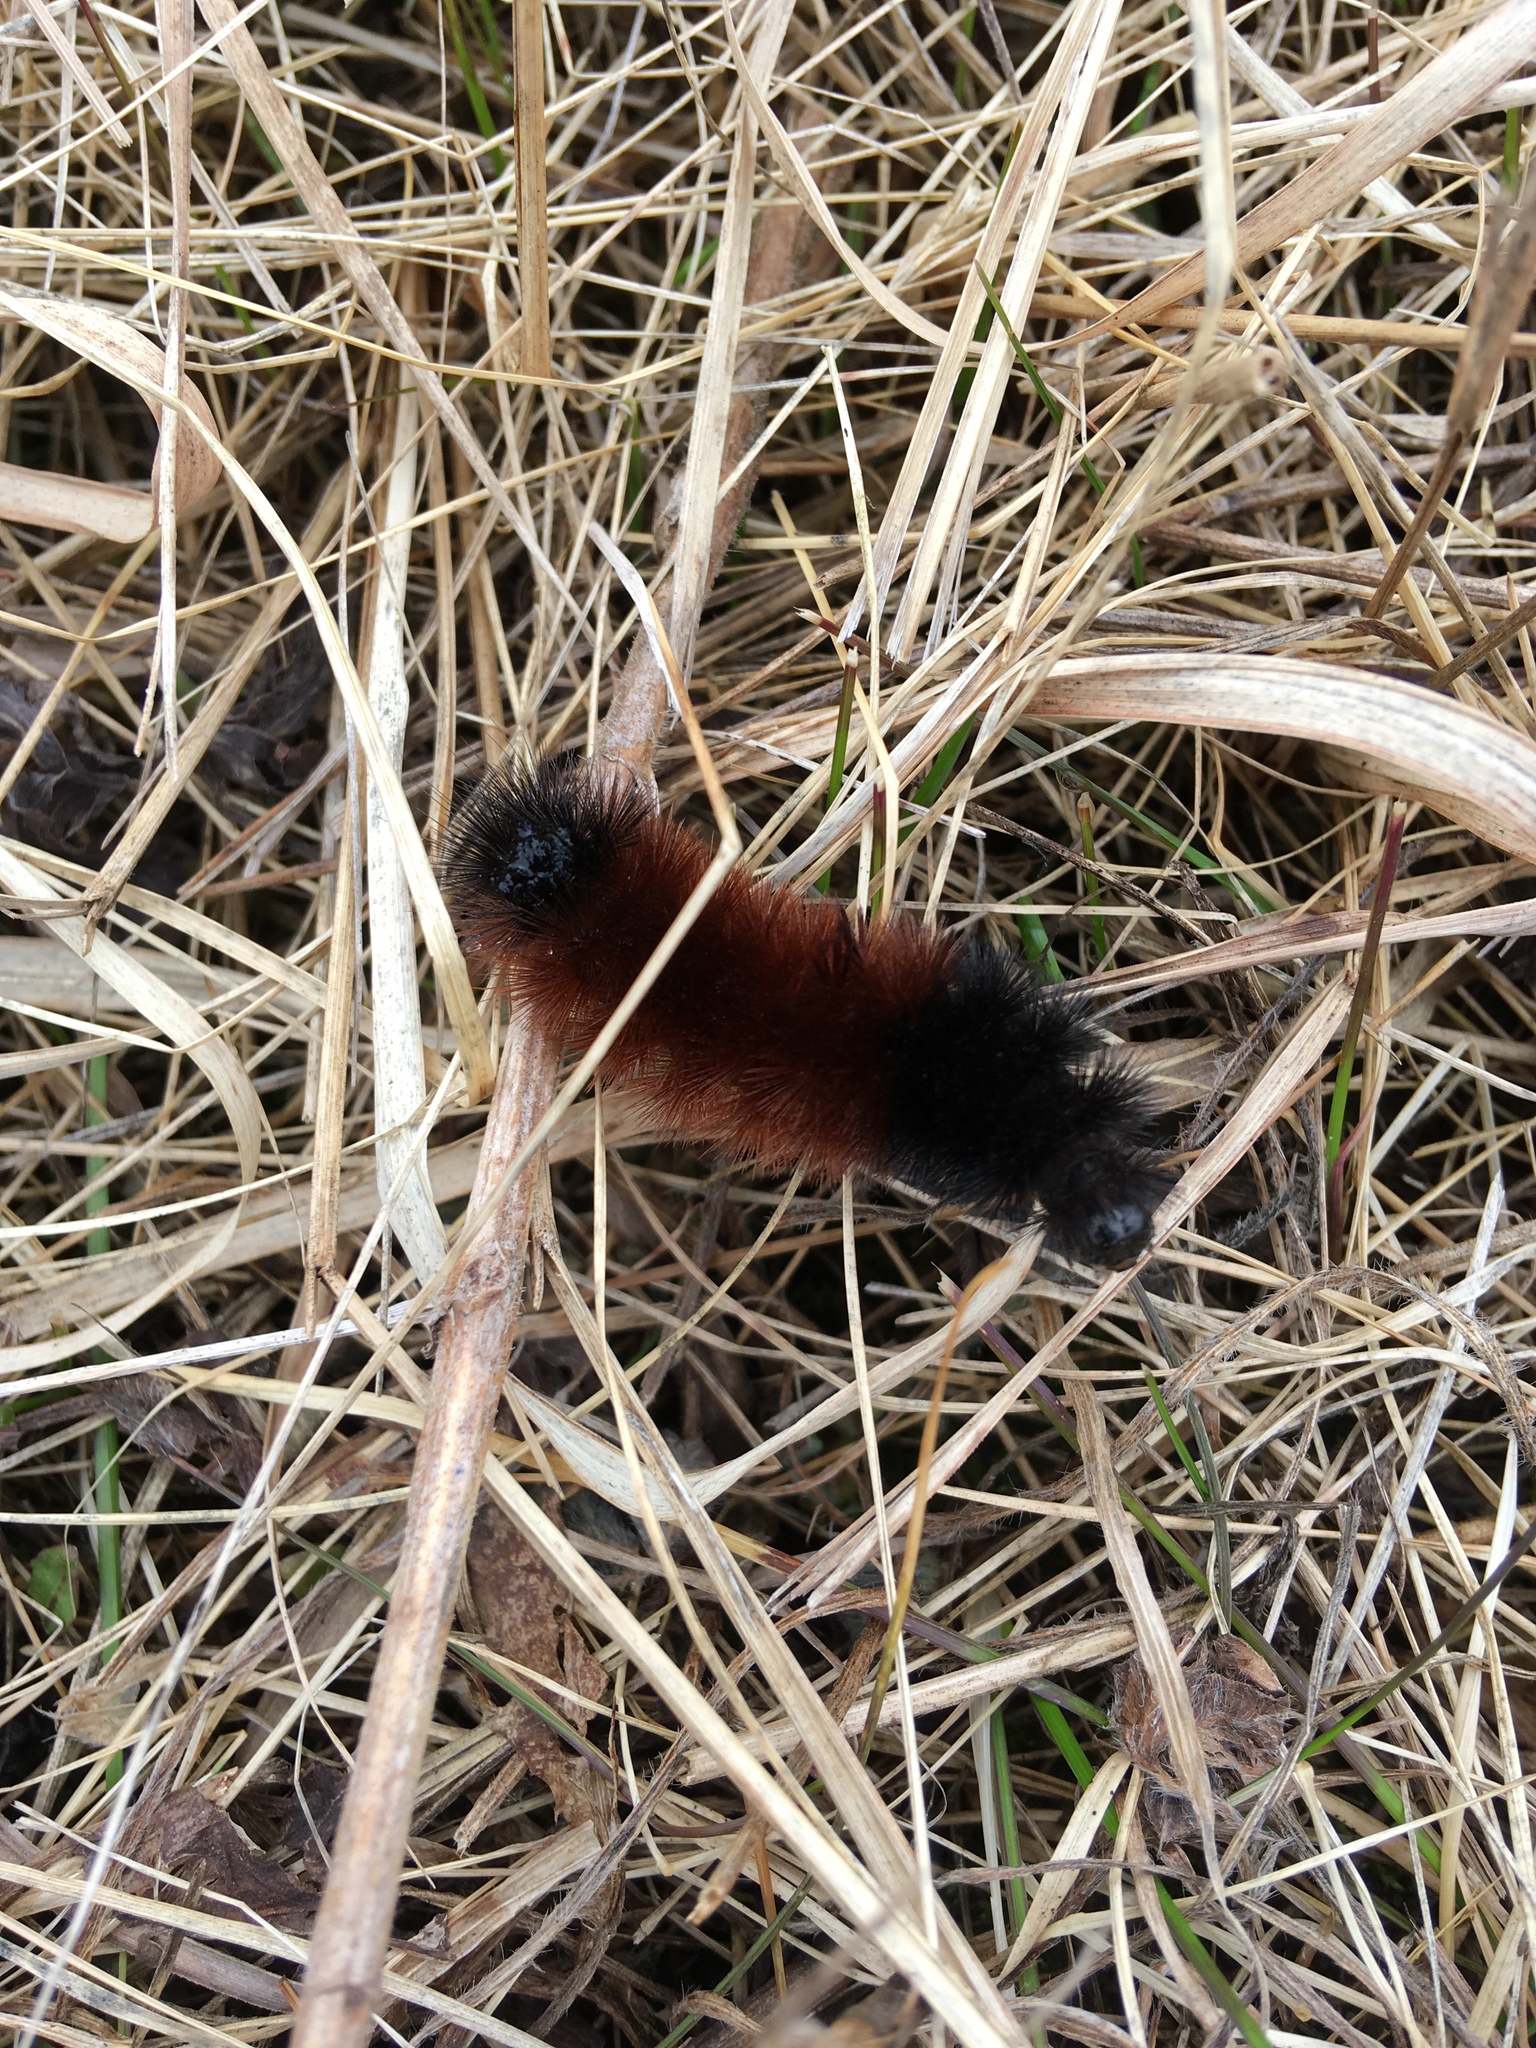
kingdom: Animalia
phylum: Arthropoda
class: Insecta
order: Lepidoptera
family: Erebidae
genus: Pyrrharctia
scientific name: Pyrrharctia isabella
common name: Isabella tiger moth
